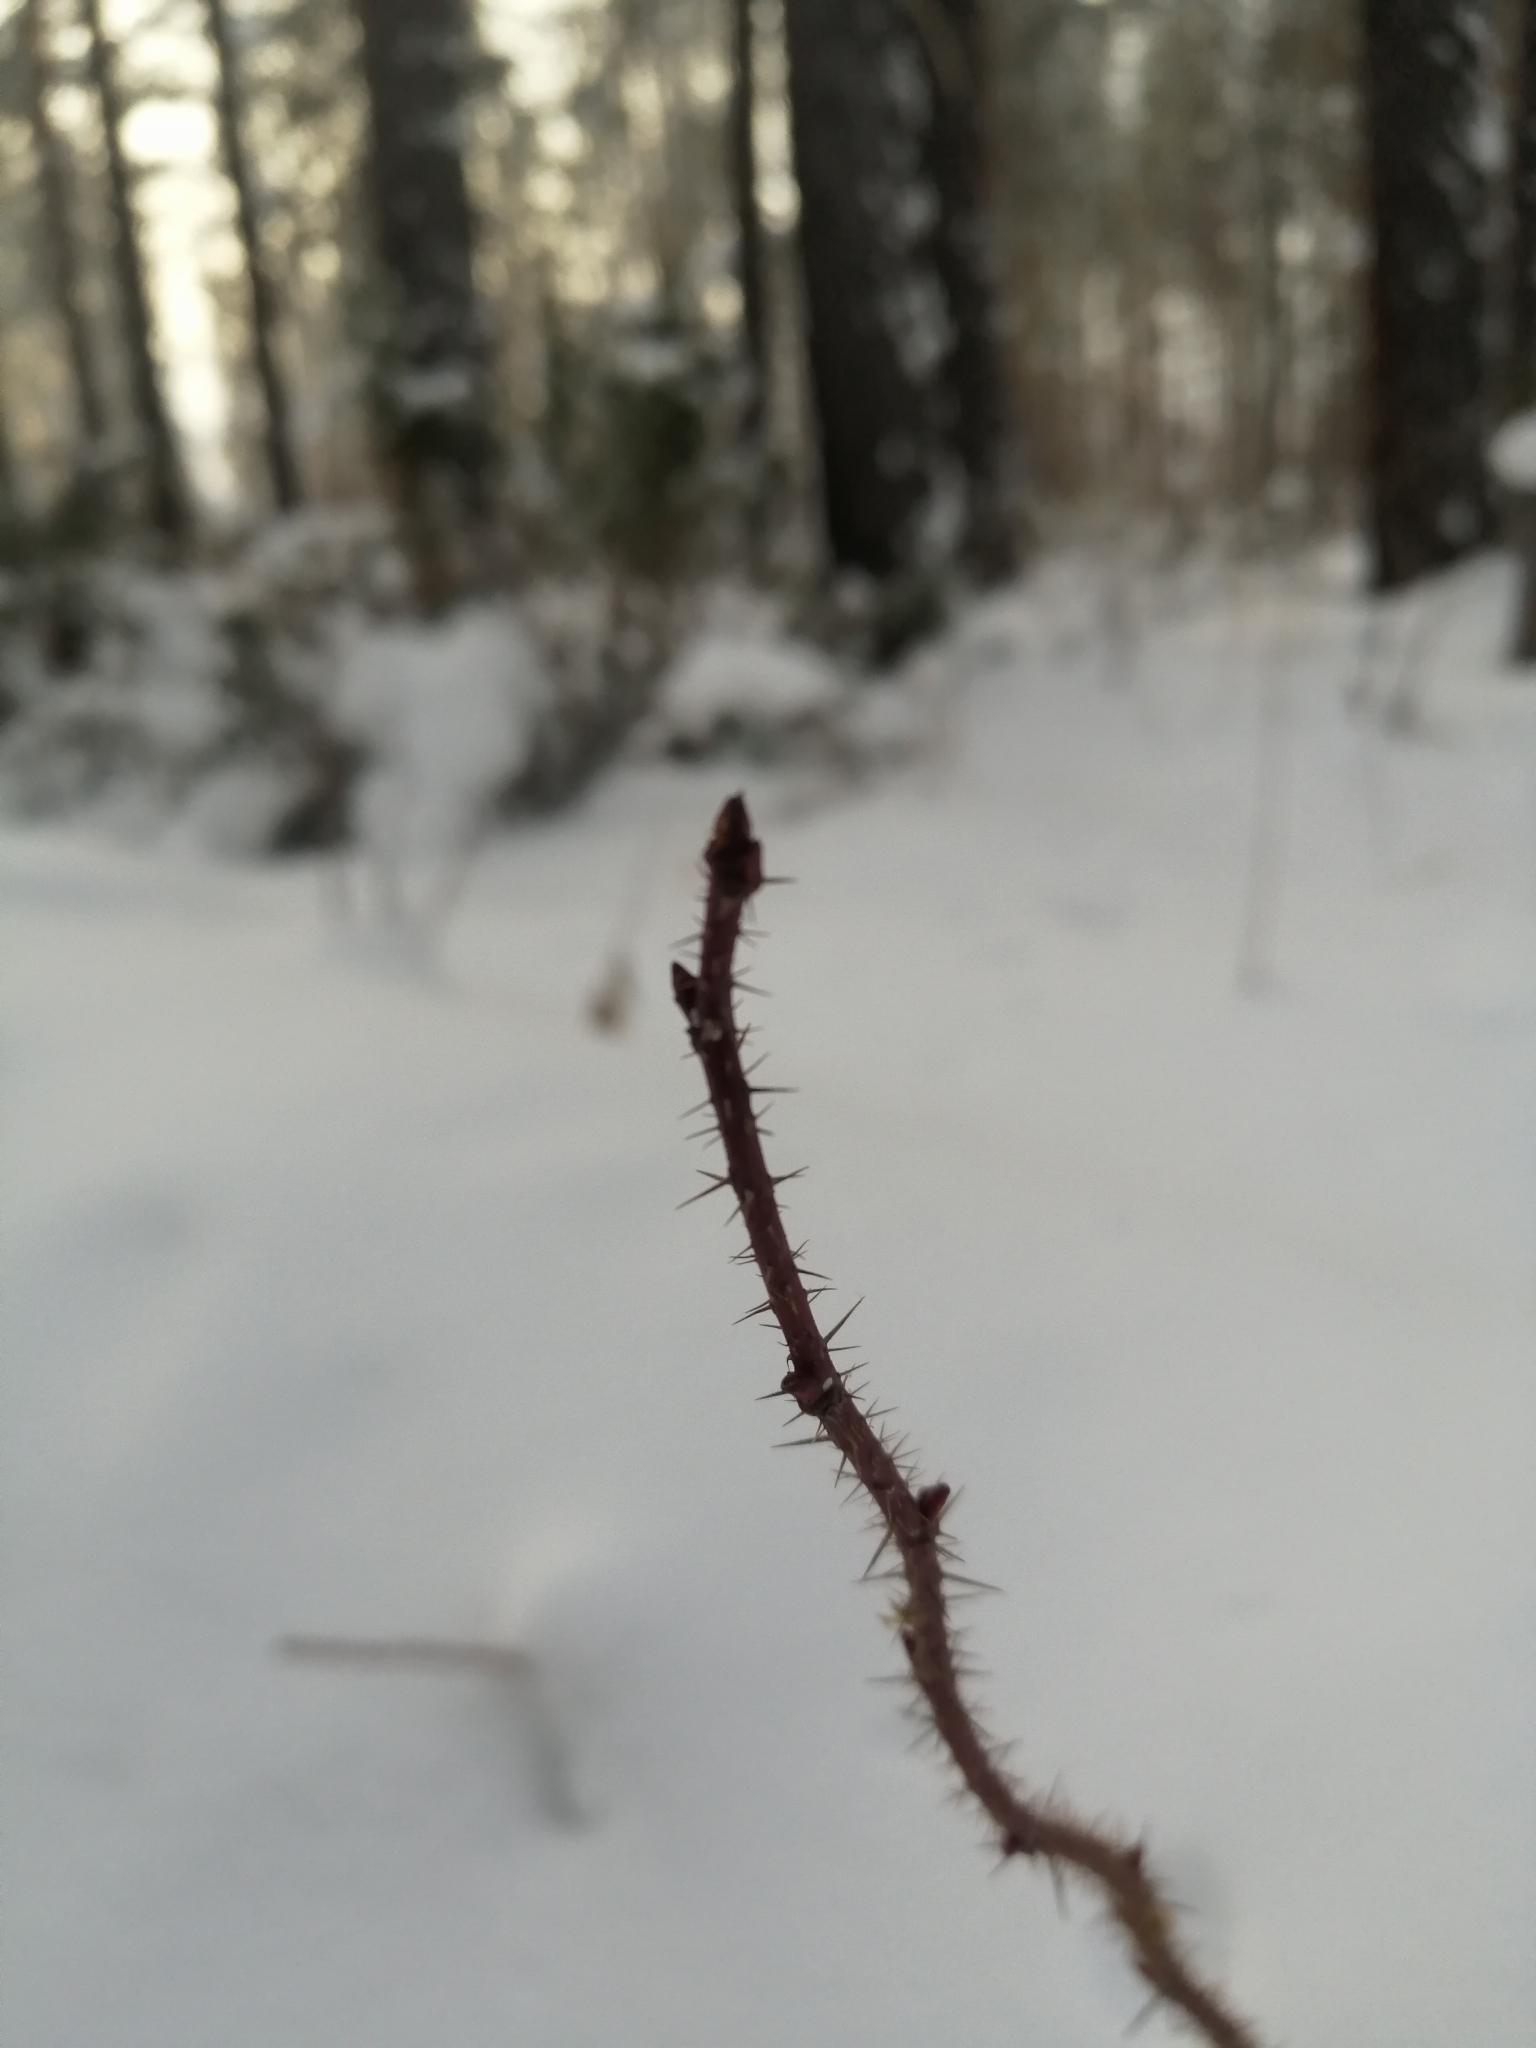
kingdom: Plantae
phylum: Tracheophyta
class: Magnoliopsida
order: Rosales
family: Rosaceae
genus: Rosa
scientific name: Rosa acicularis
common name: Prickly rose
